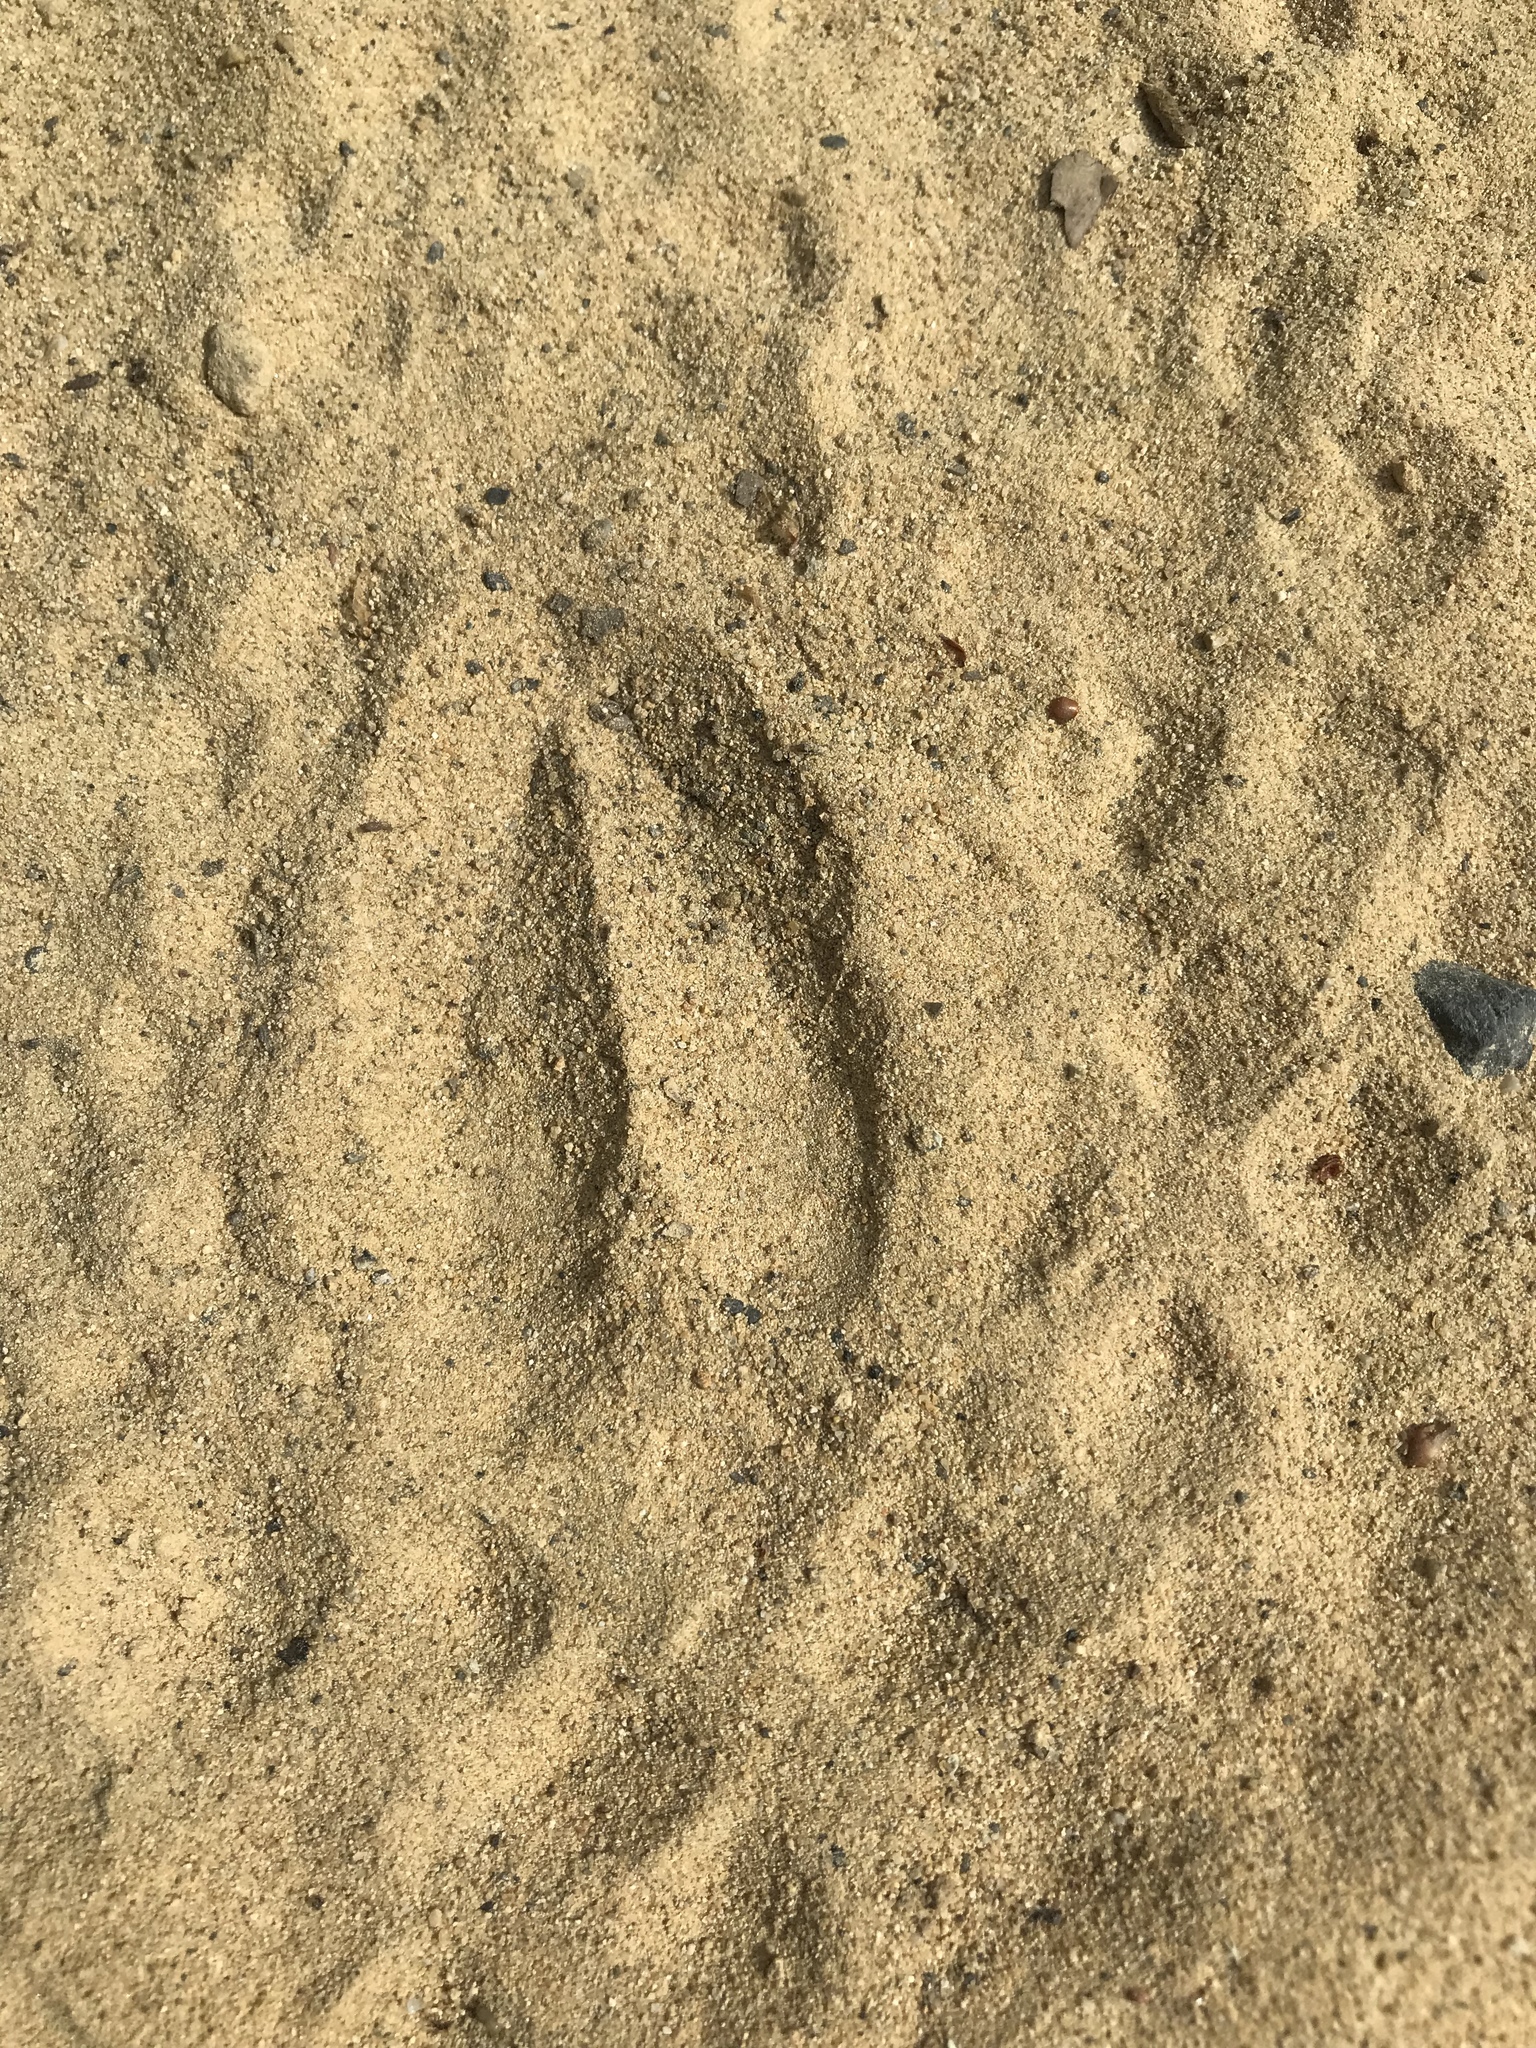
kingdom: Animalia
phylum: Chordata
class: Mammalia
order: Artiodactyla
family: Cervidae
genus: Odocoileus
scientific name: Odocoileus hemionus
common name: Mule deer
